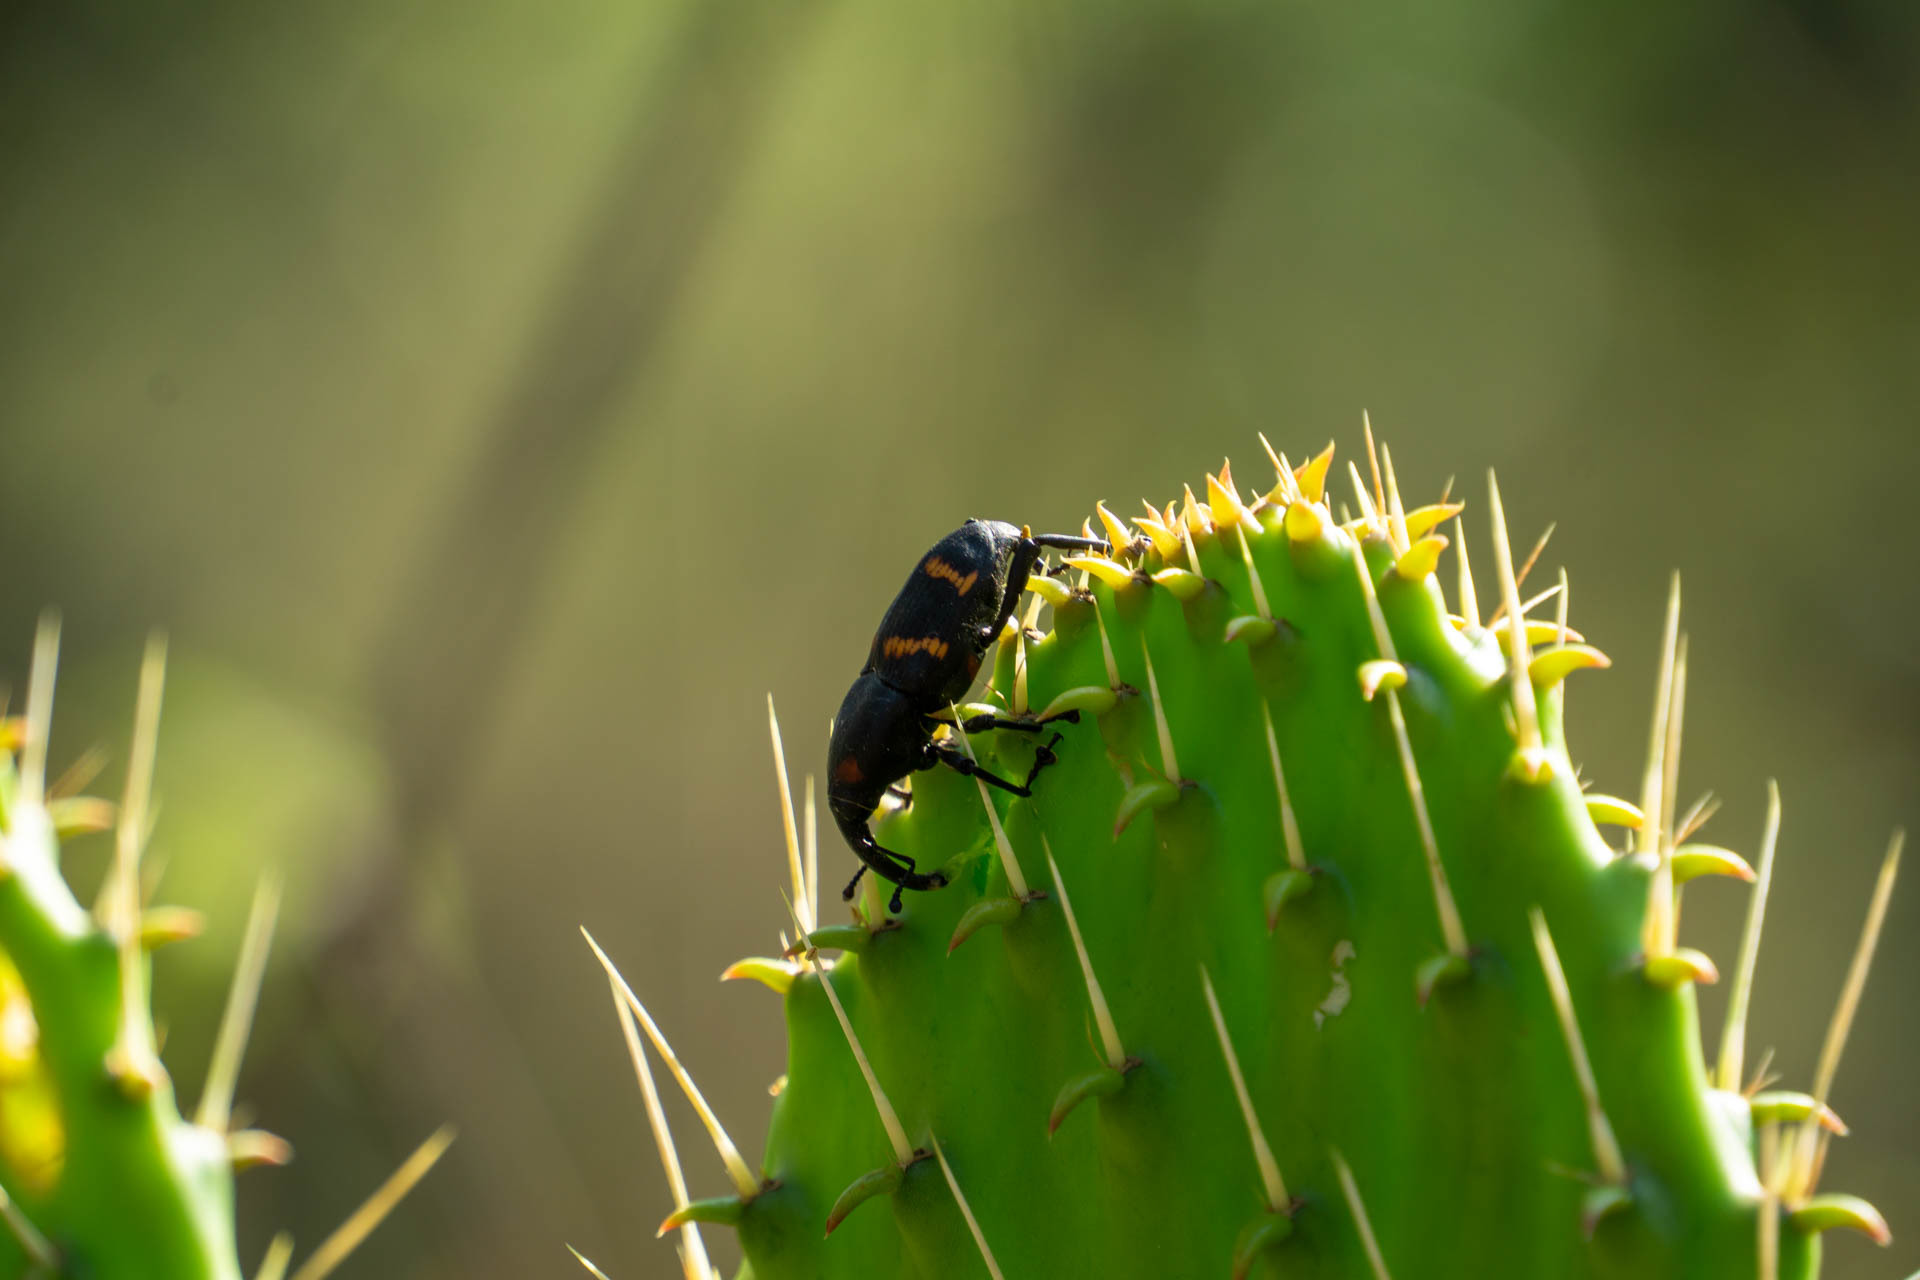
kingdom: Animalia
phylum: Arthropoda
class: Insecta
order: Coleoptera
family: Dryophthoridae
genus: Cactophagus
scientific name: Cactophagus spinolae
